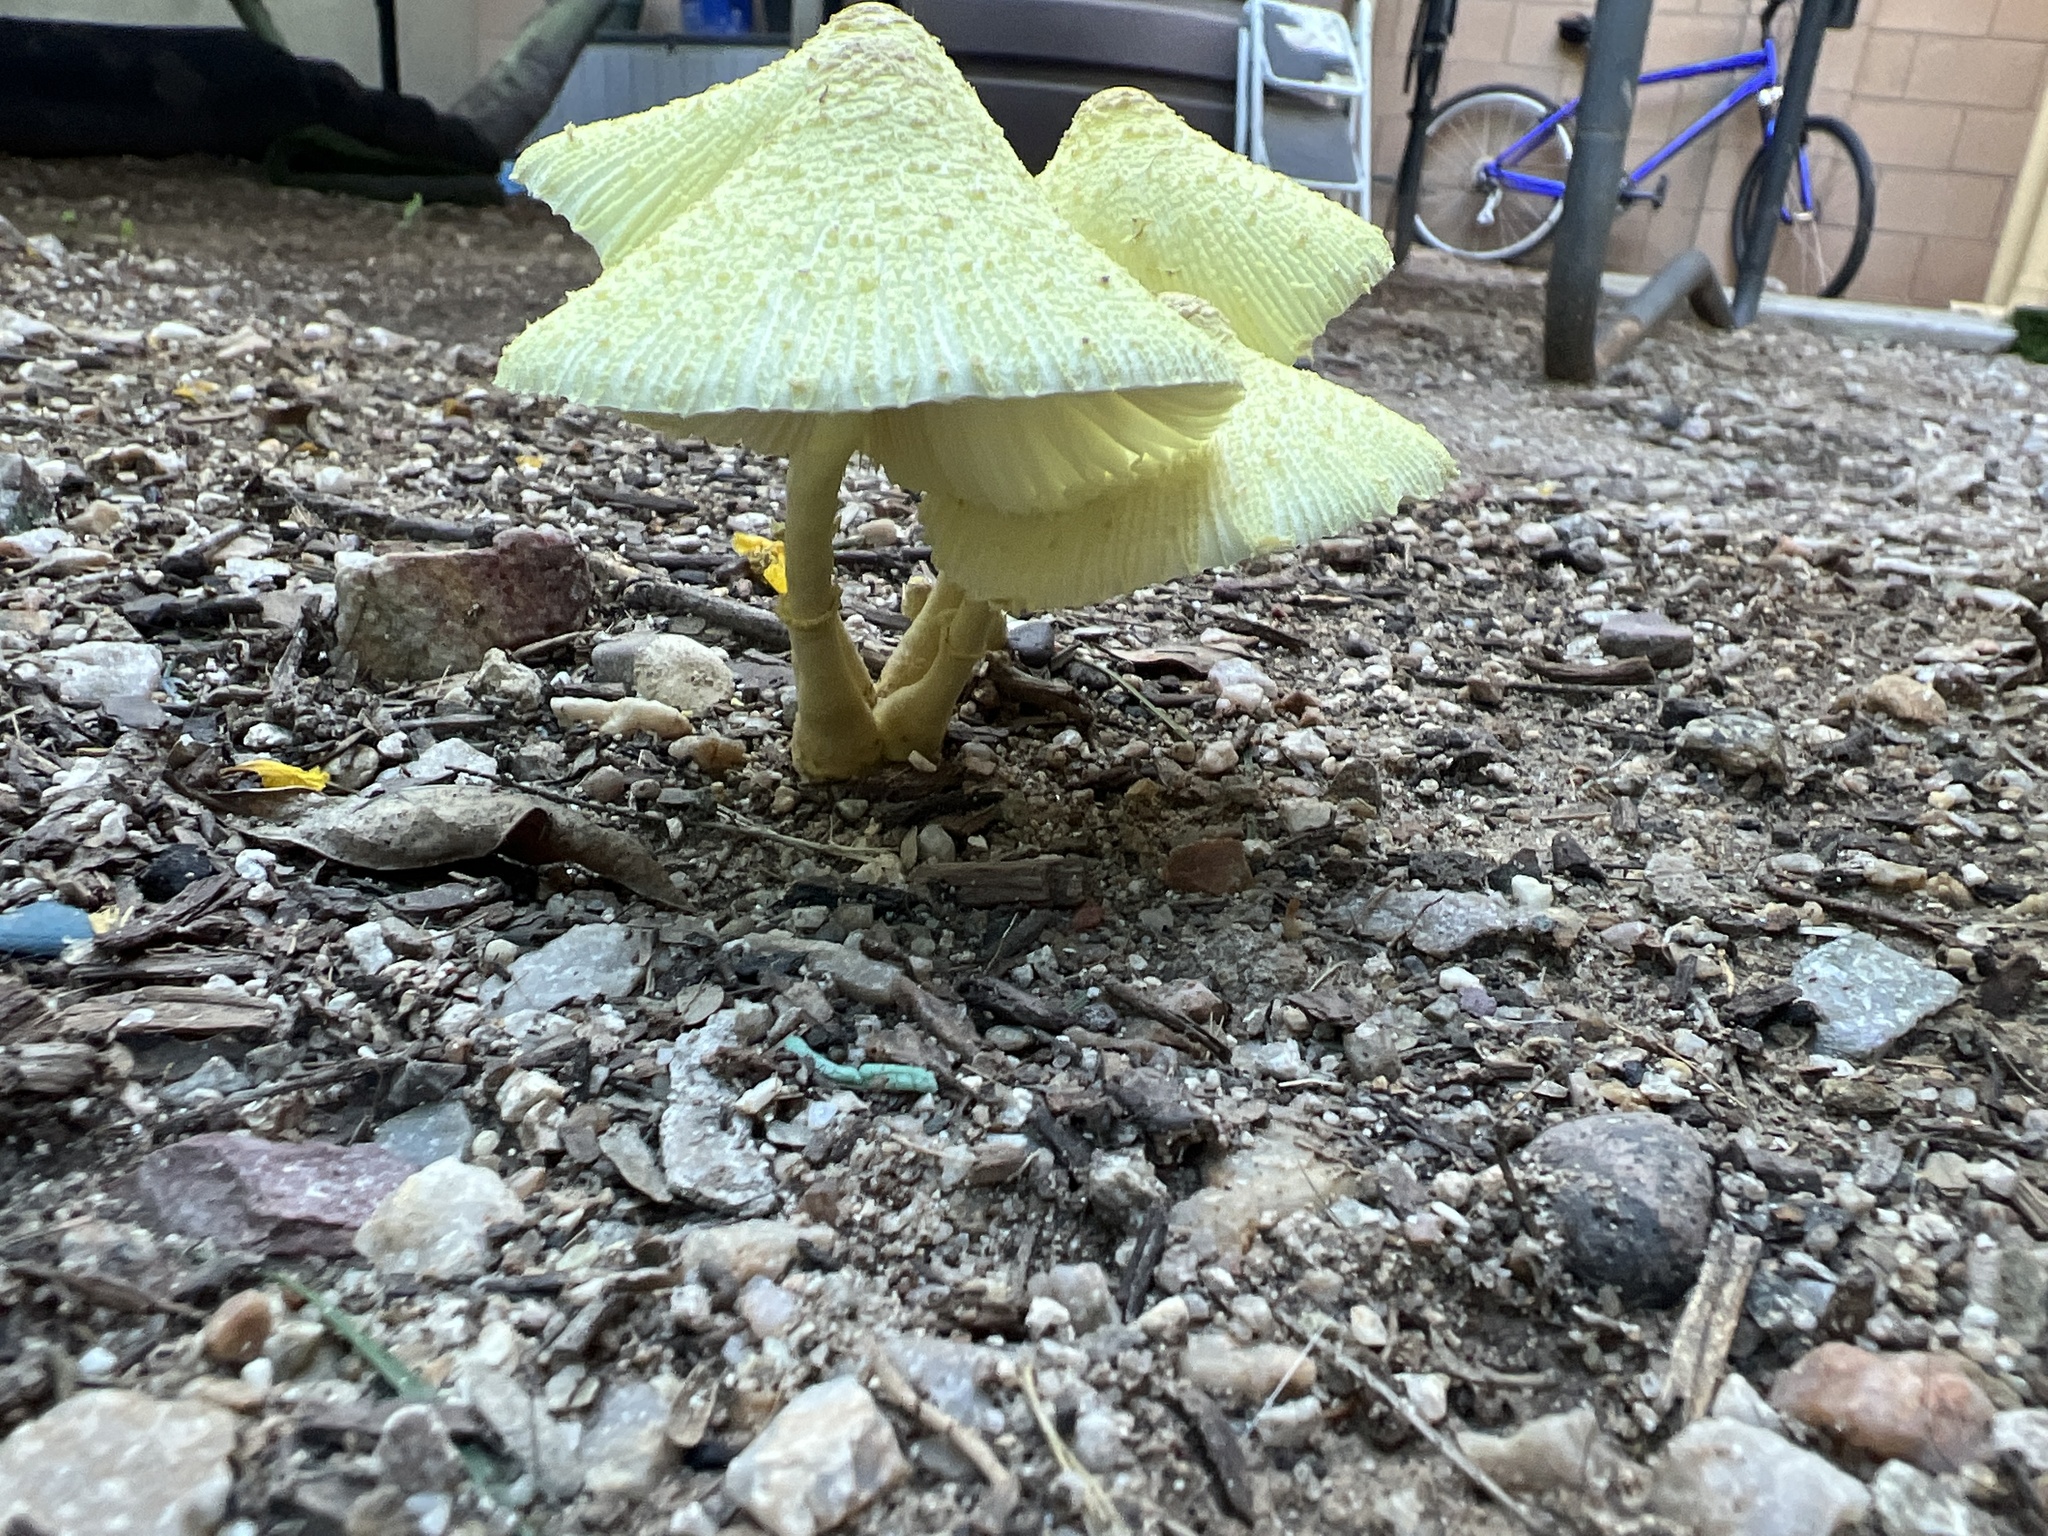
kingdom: Fungi
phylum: Basidiomycota
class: Agaricomycetes
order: Agaricales
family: Agaricaceae
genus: Leucocoprinus
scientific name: Leucocoprinus birnbaumii
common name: Plantpot dapperling
